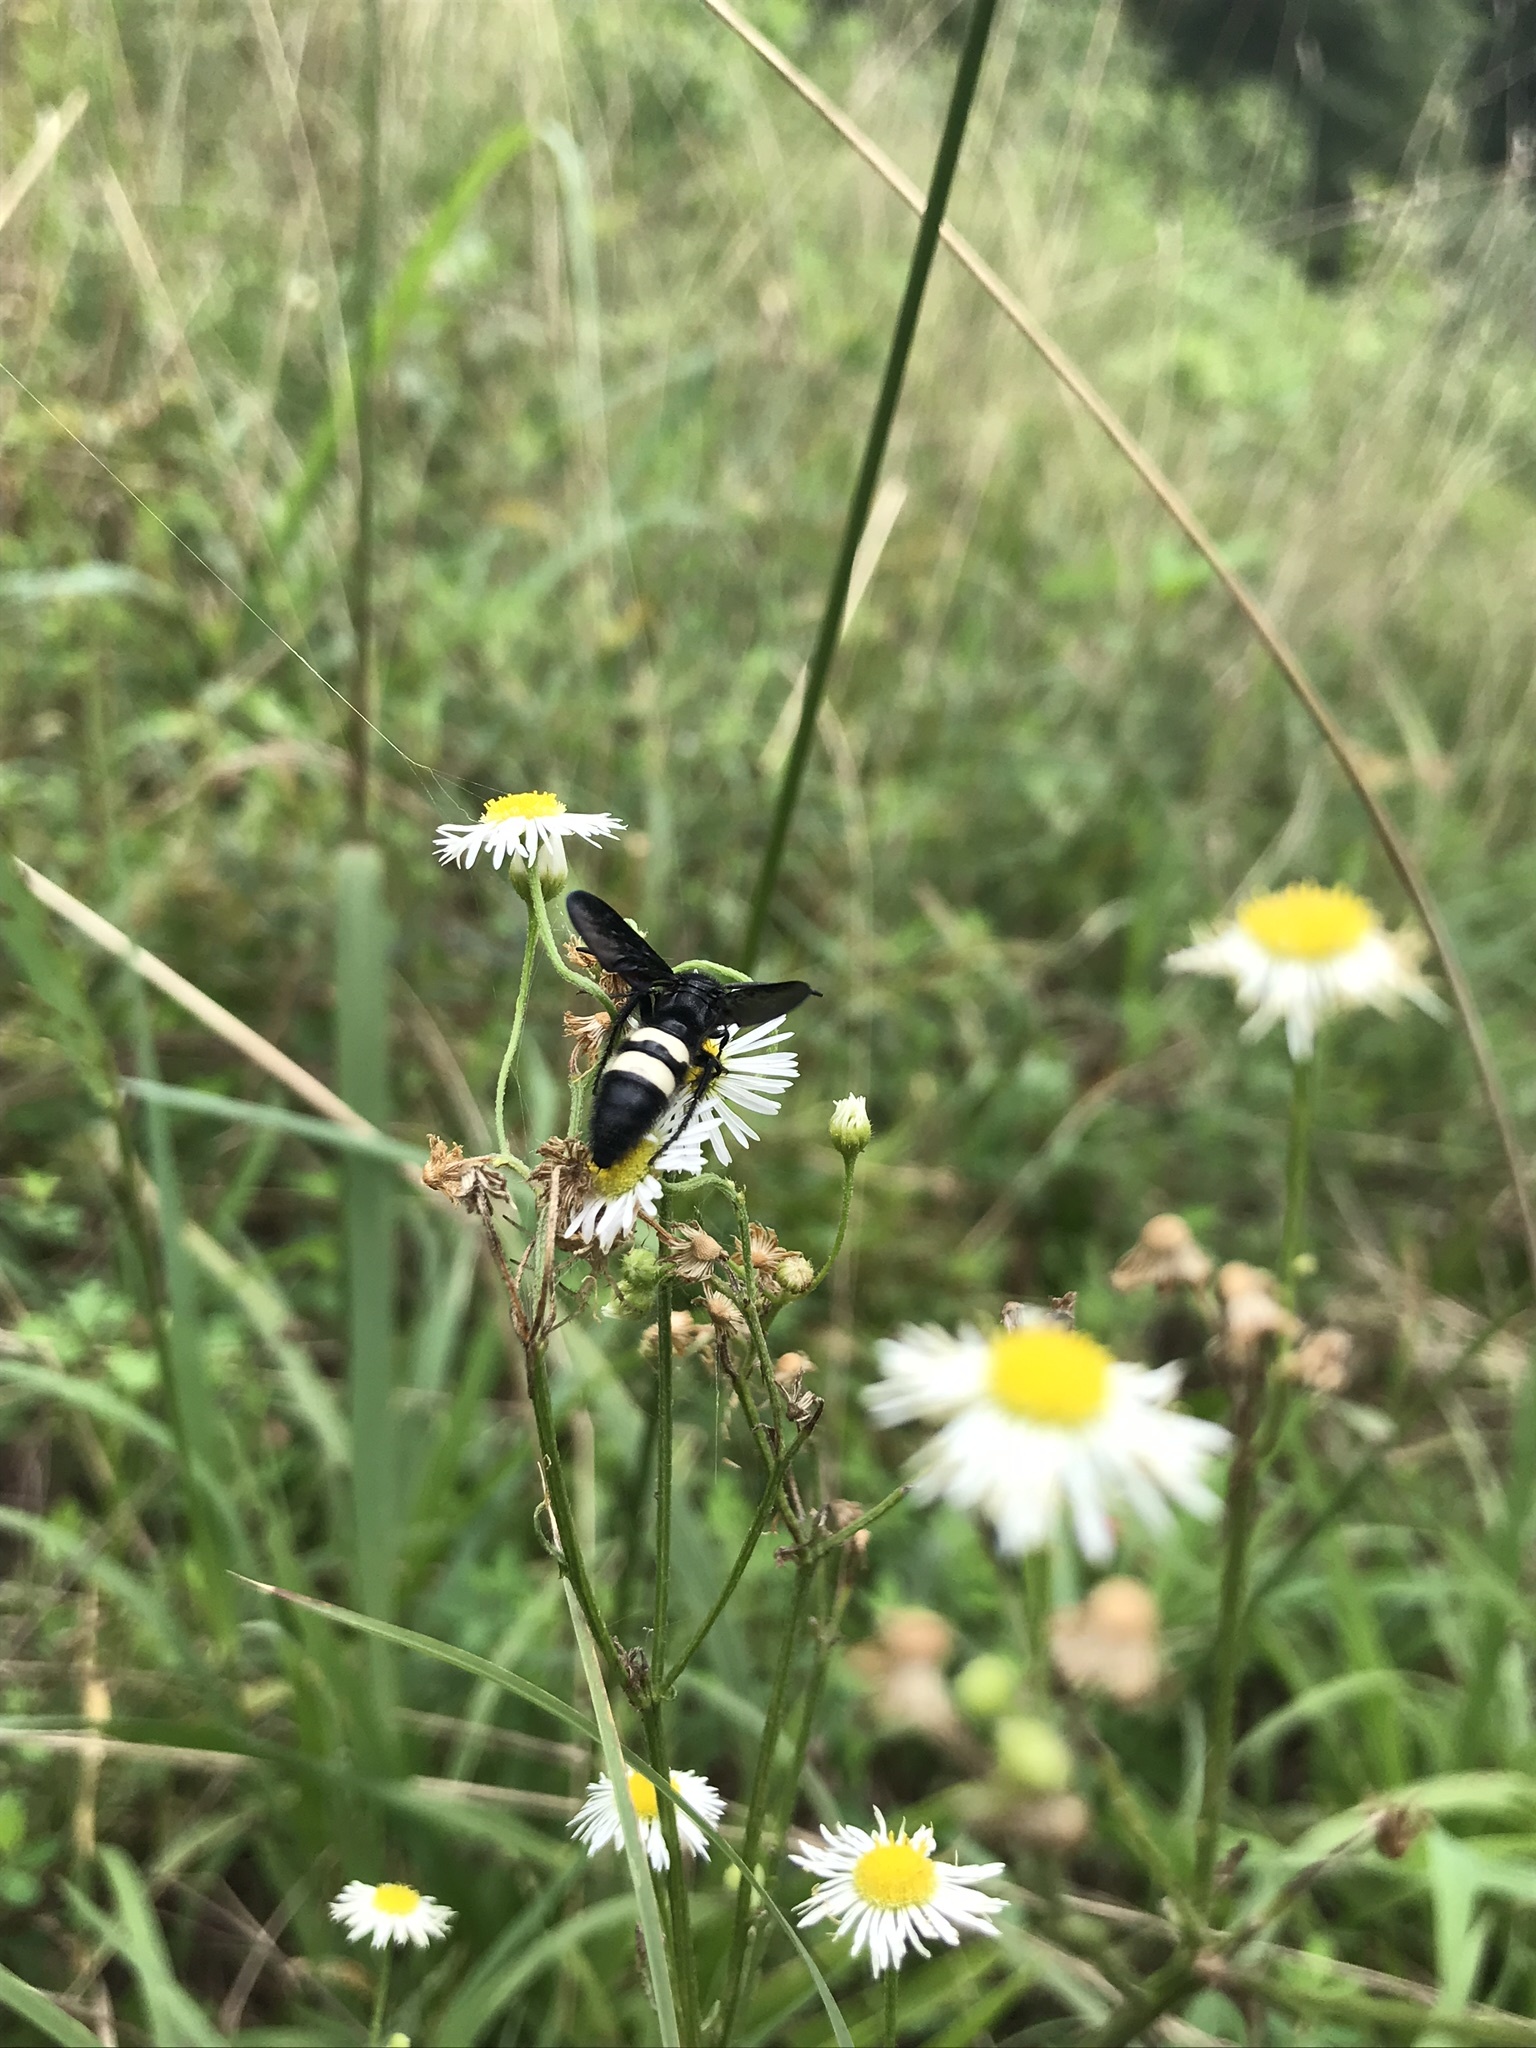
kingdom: Animalia
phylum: Arthropoda
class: Insecta
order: Hymenoptera
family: Scoliidae
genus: Scolia
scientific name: Scolia bicincta
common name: Double-banded scoliid wasp
